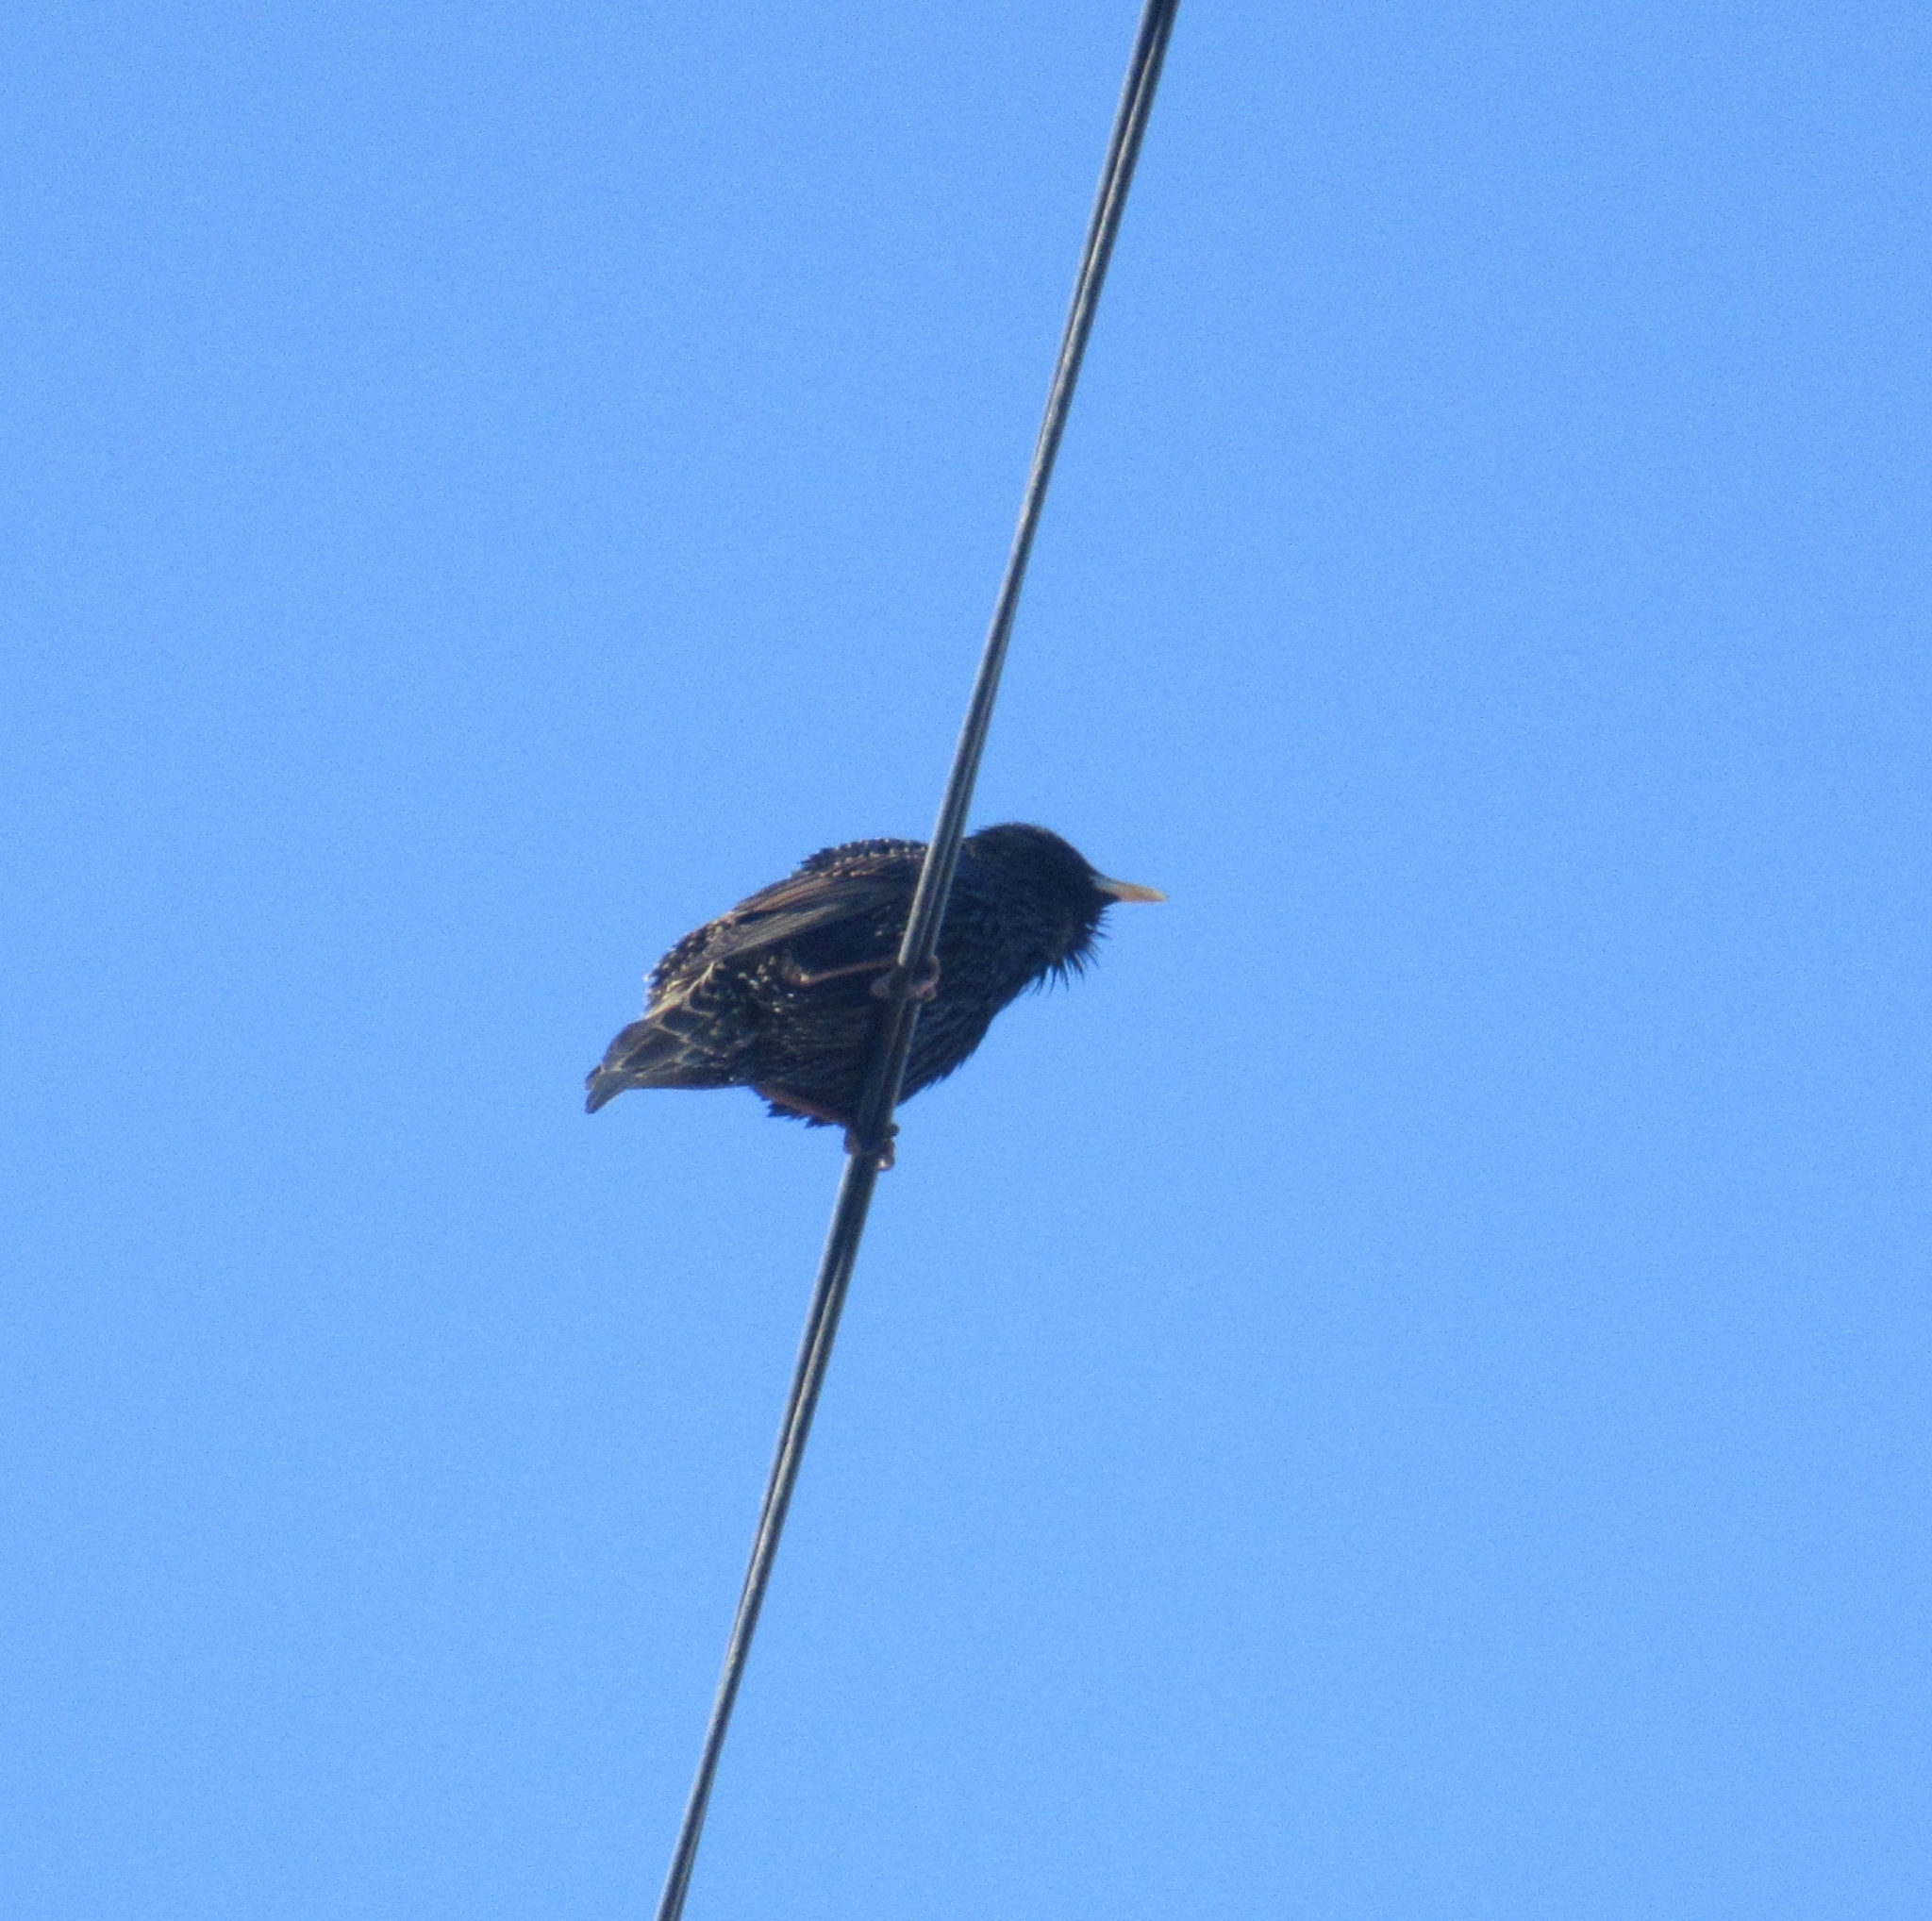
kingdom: Animalia
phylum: Chordata
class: Aves
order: Passeriformes
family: Sturnidae
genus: Sturnus
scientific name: Sturnus vulgaris
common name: Common starling
